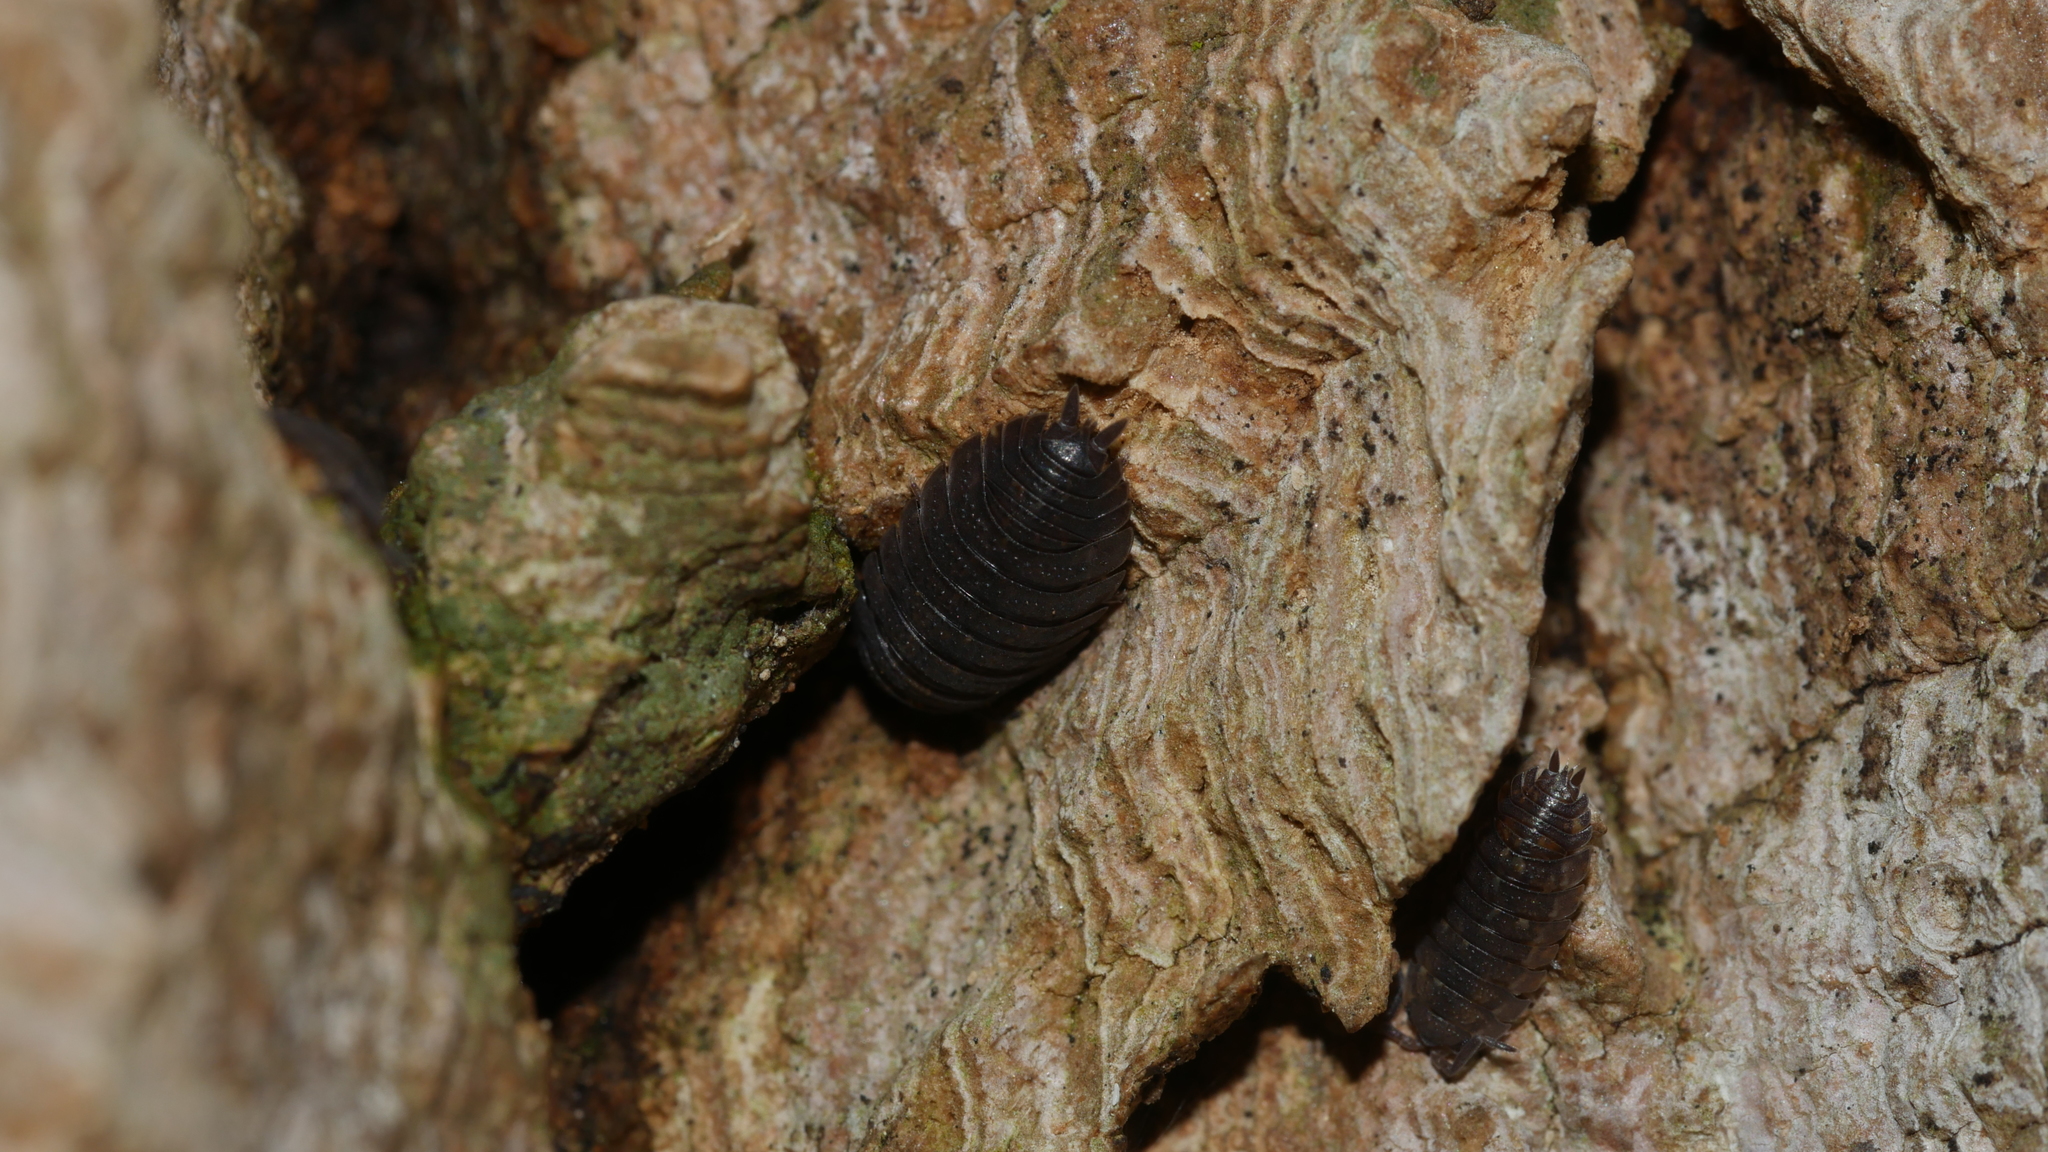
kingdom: Animalia
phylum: Arthropoda
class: Malacostraca
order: Isopoda
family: Porcellionidae
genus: Porcellio
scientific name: Porcellio scaber
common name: Common rough woodlouse
